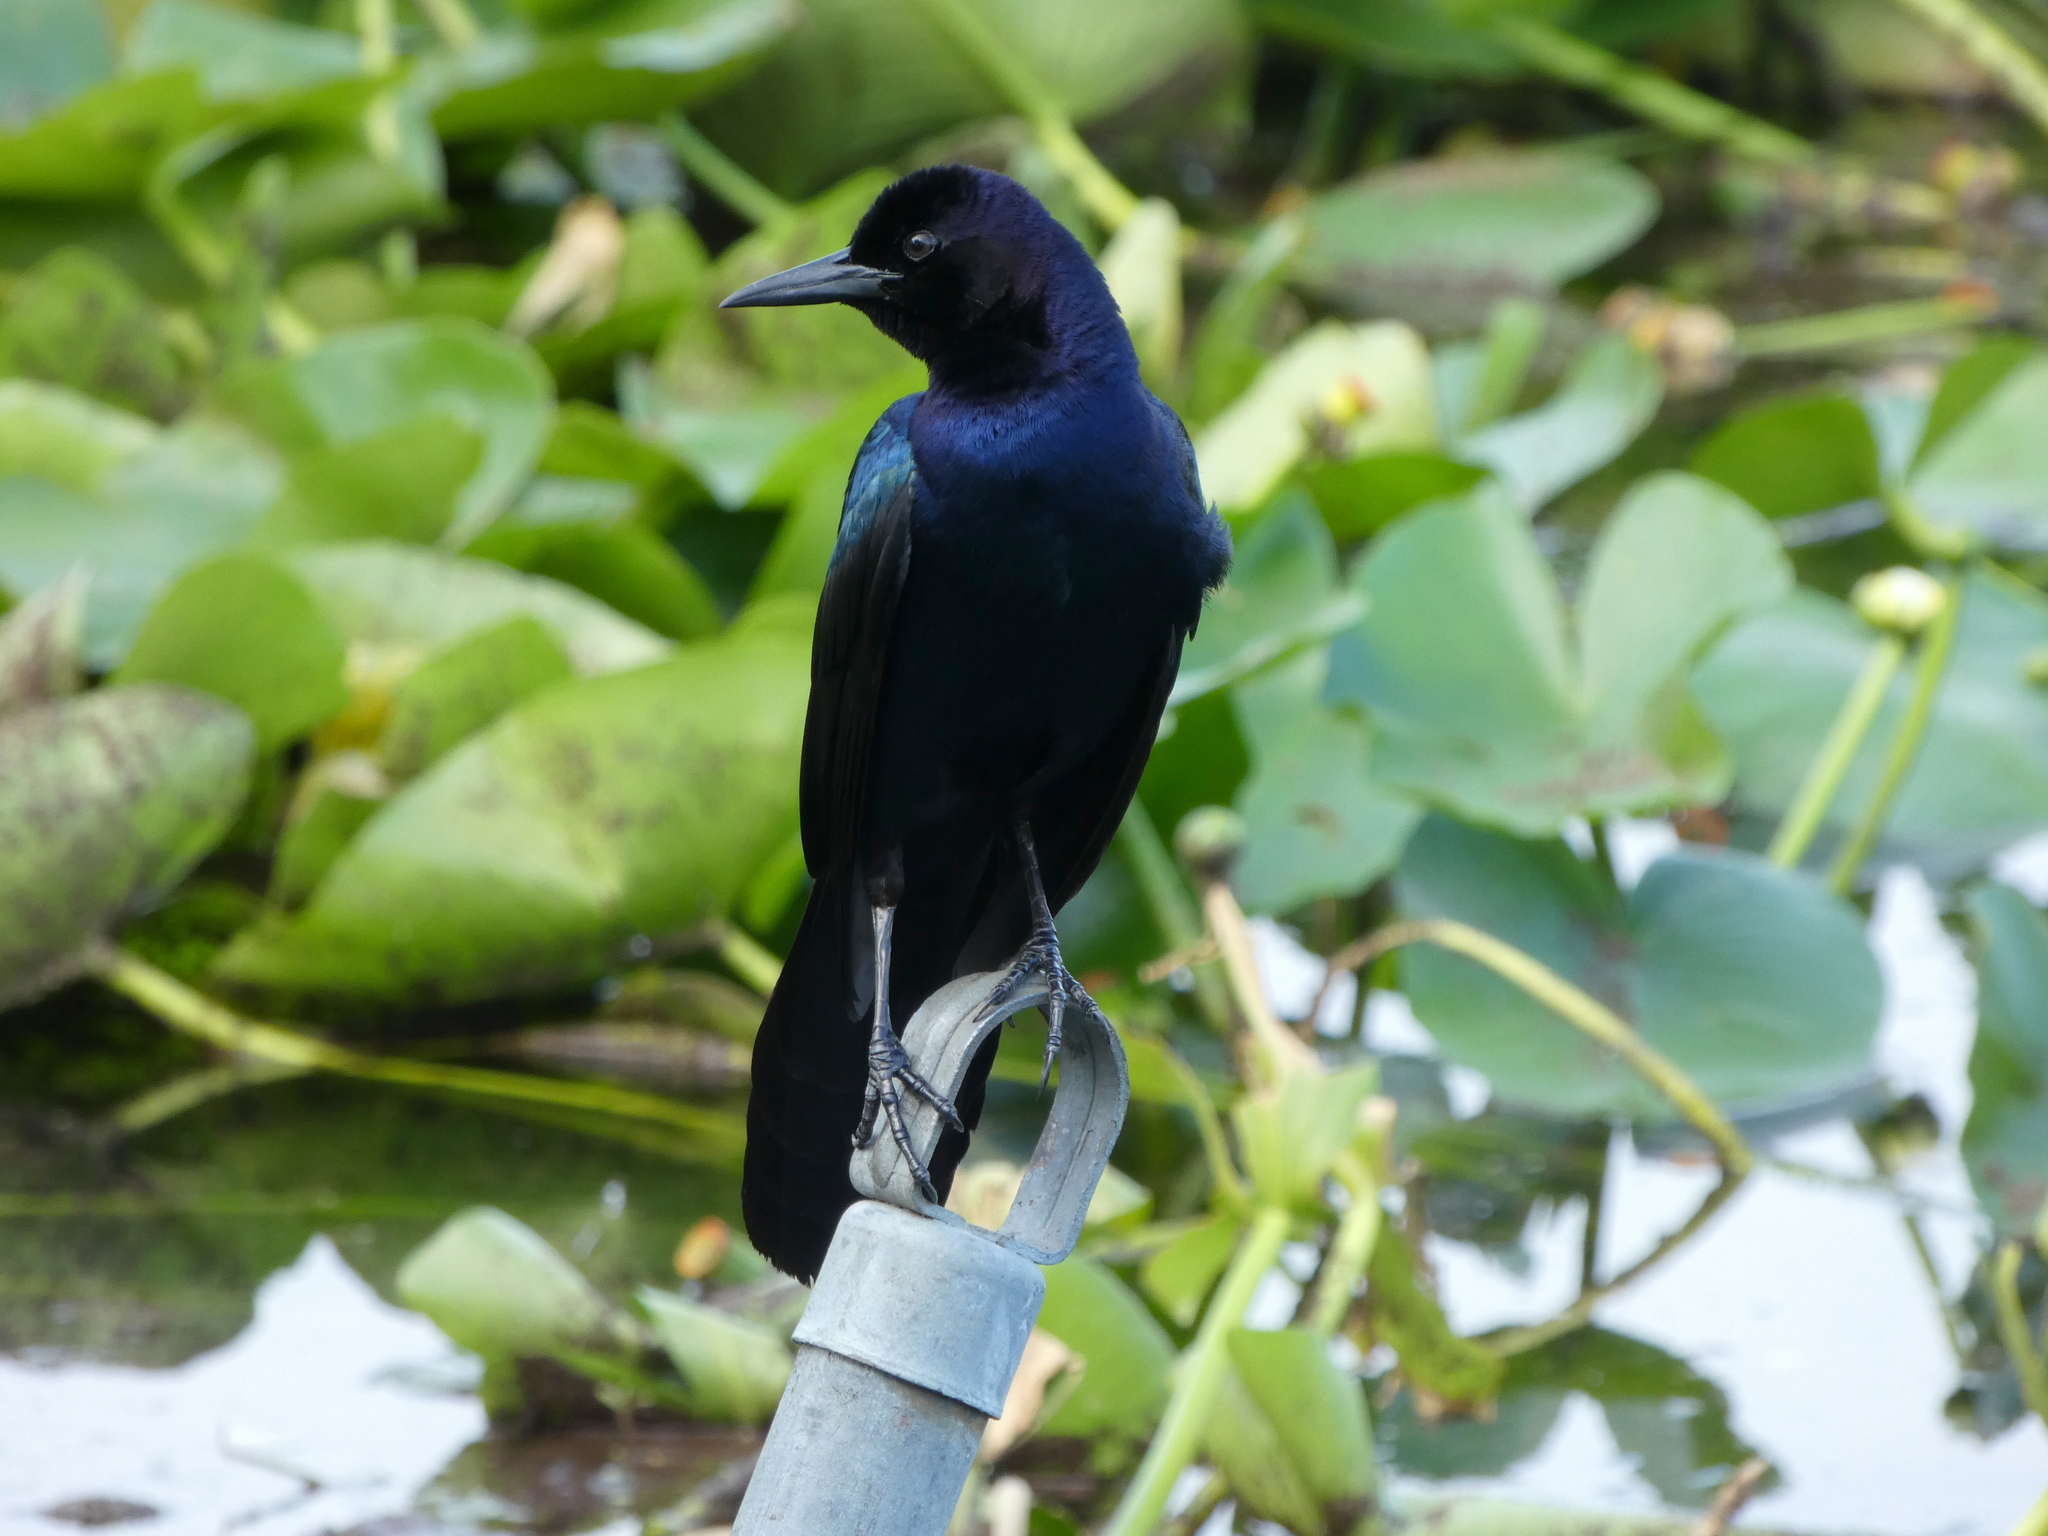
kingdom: Animalia
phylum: Chordata
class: Aves
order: Passeriformes
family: Icteridae
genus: Quiscalus
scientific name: Quiscalus major
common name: Boat-tailed grackle
